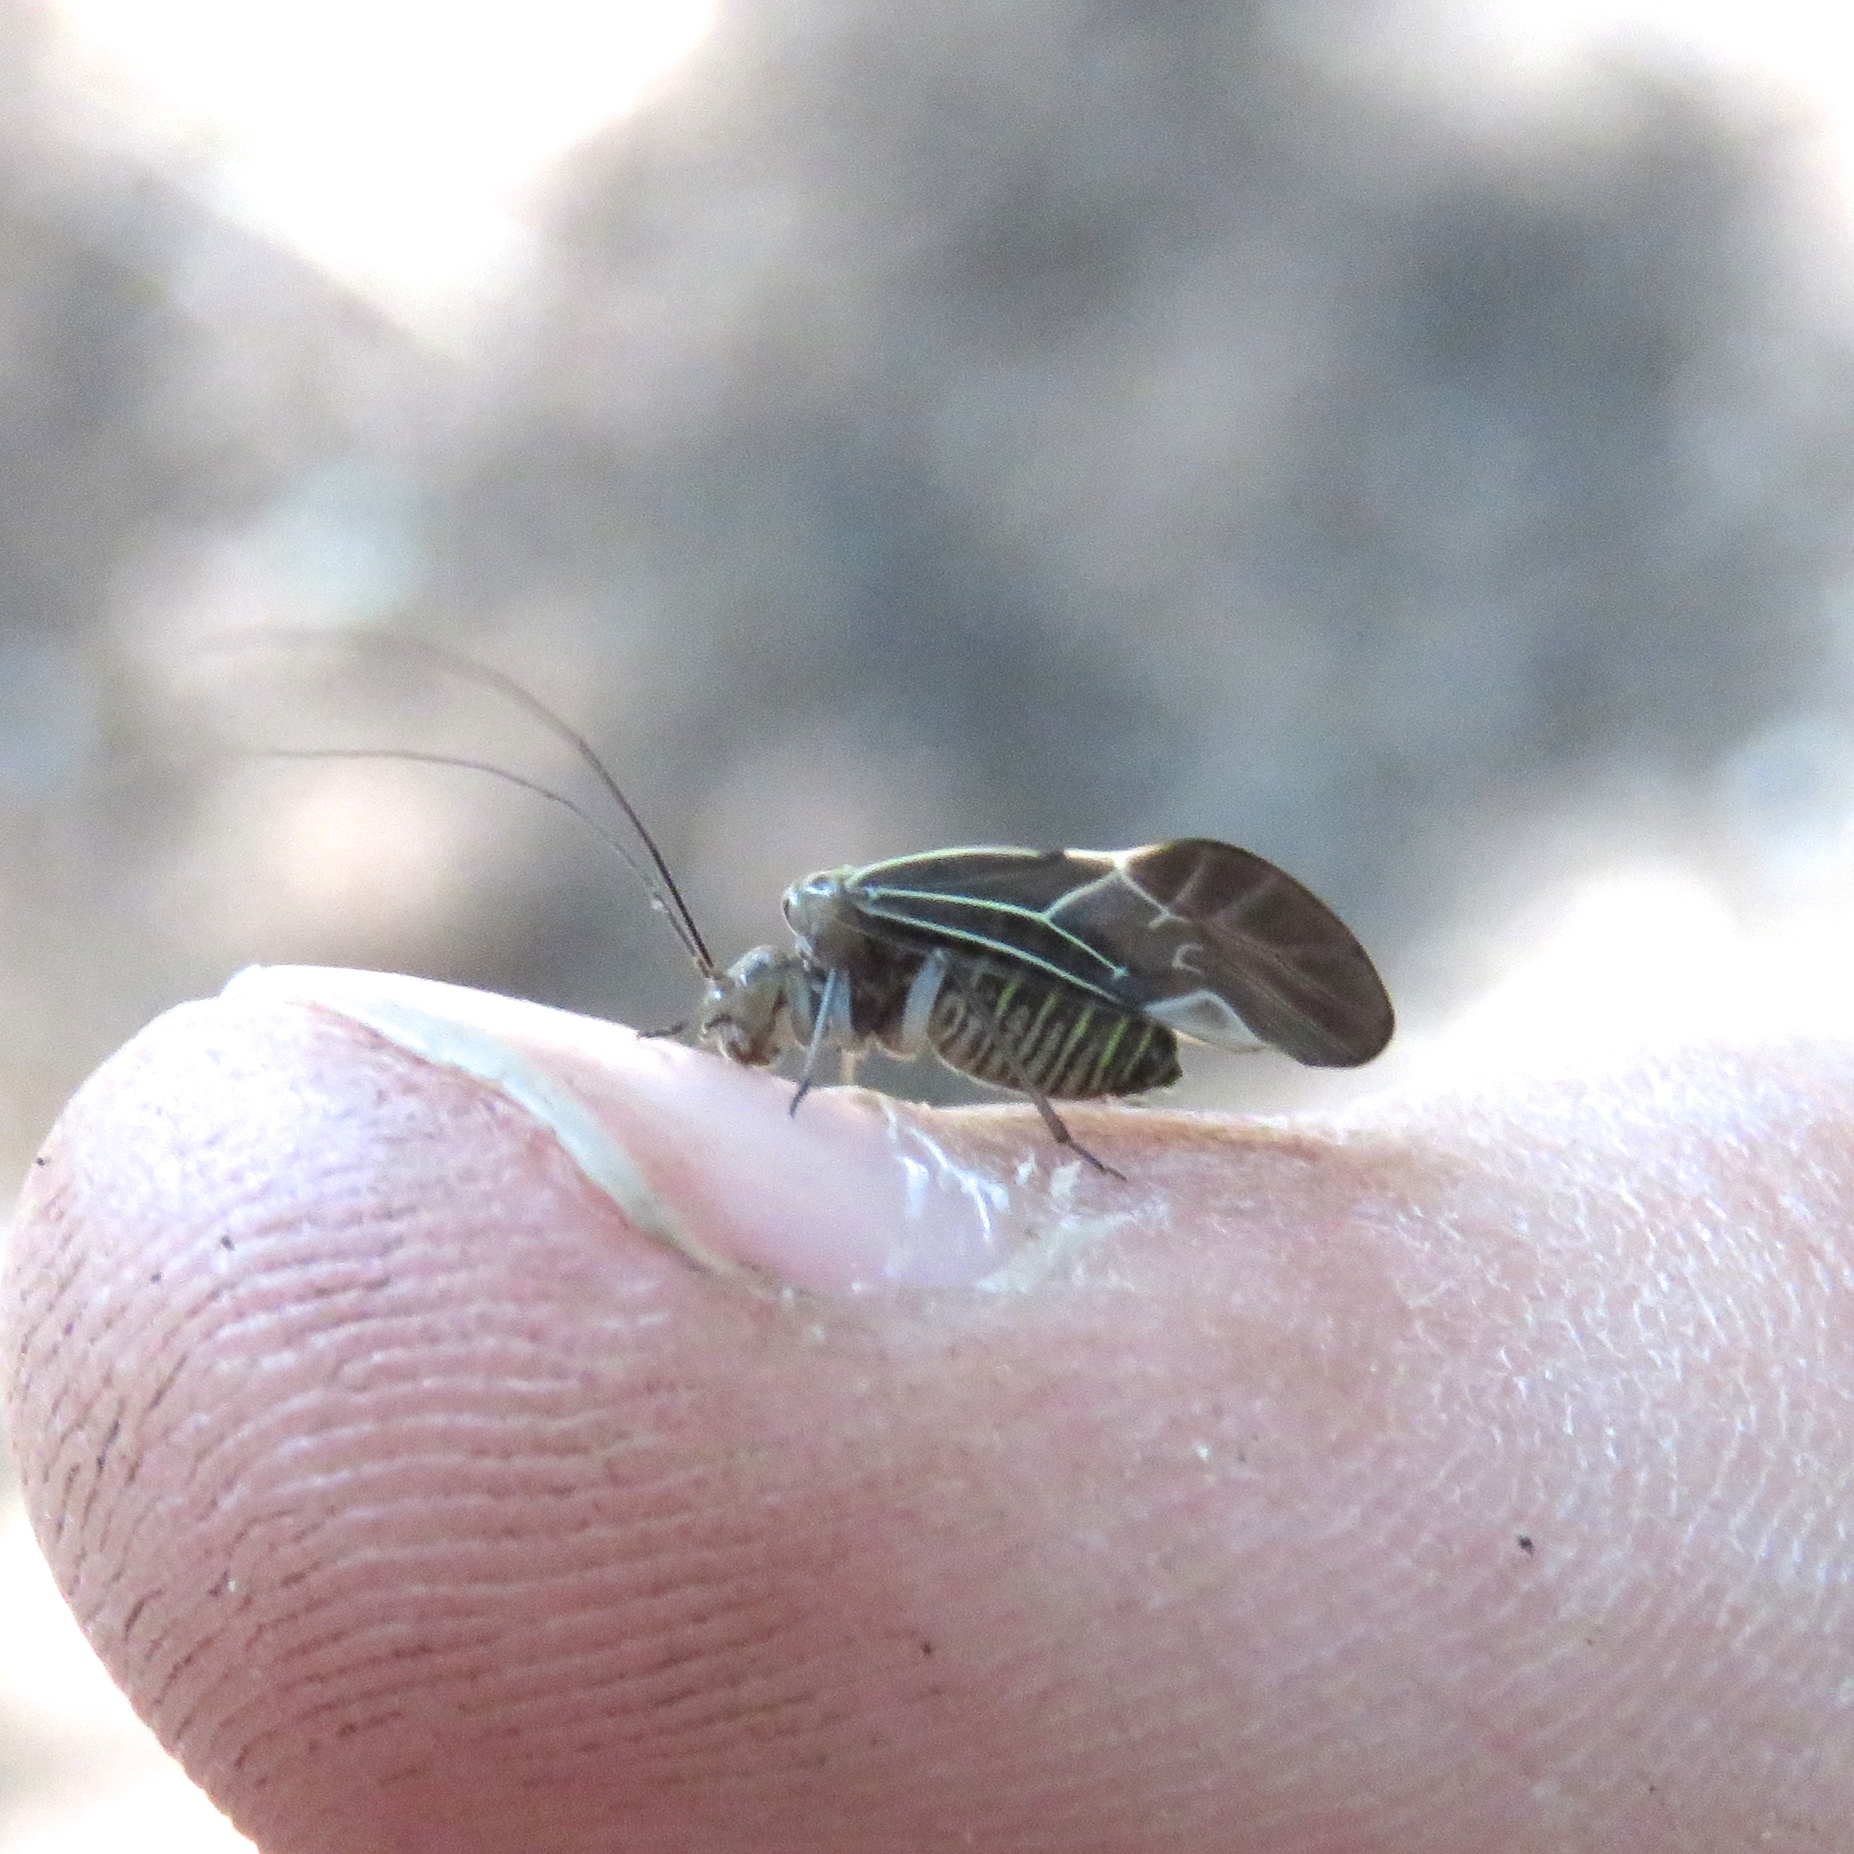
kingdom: Animalia
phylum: Arthropoda
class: Insecta
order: Psocodea
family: Psocidae
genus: Cerastipsocus
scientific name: Cerastipsocus venosus
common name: Tree cattle
